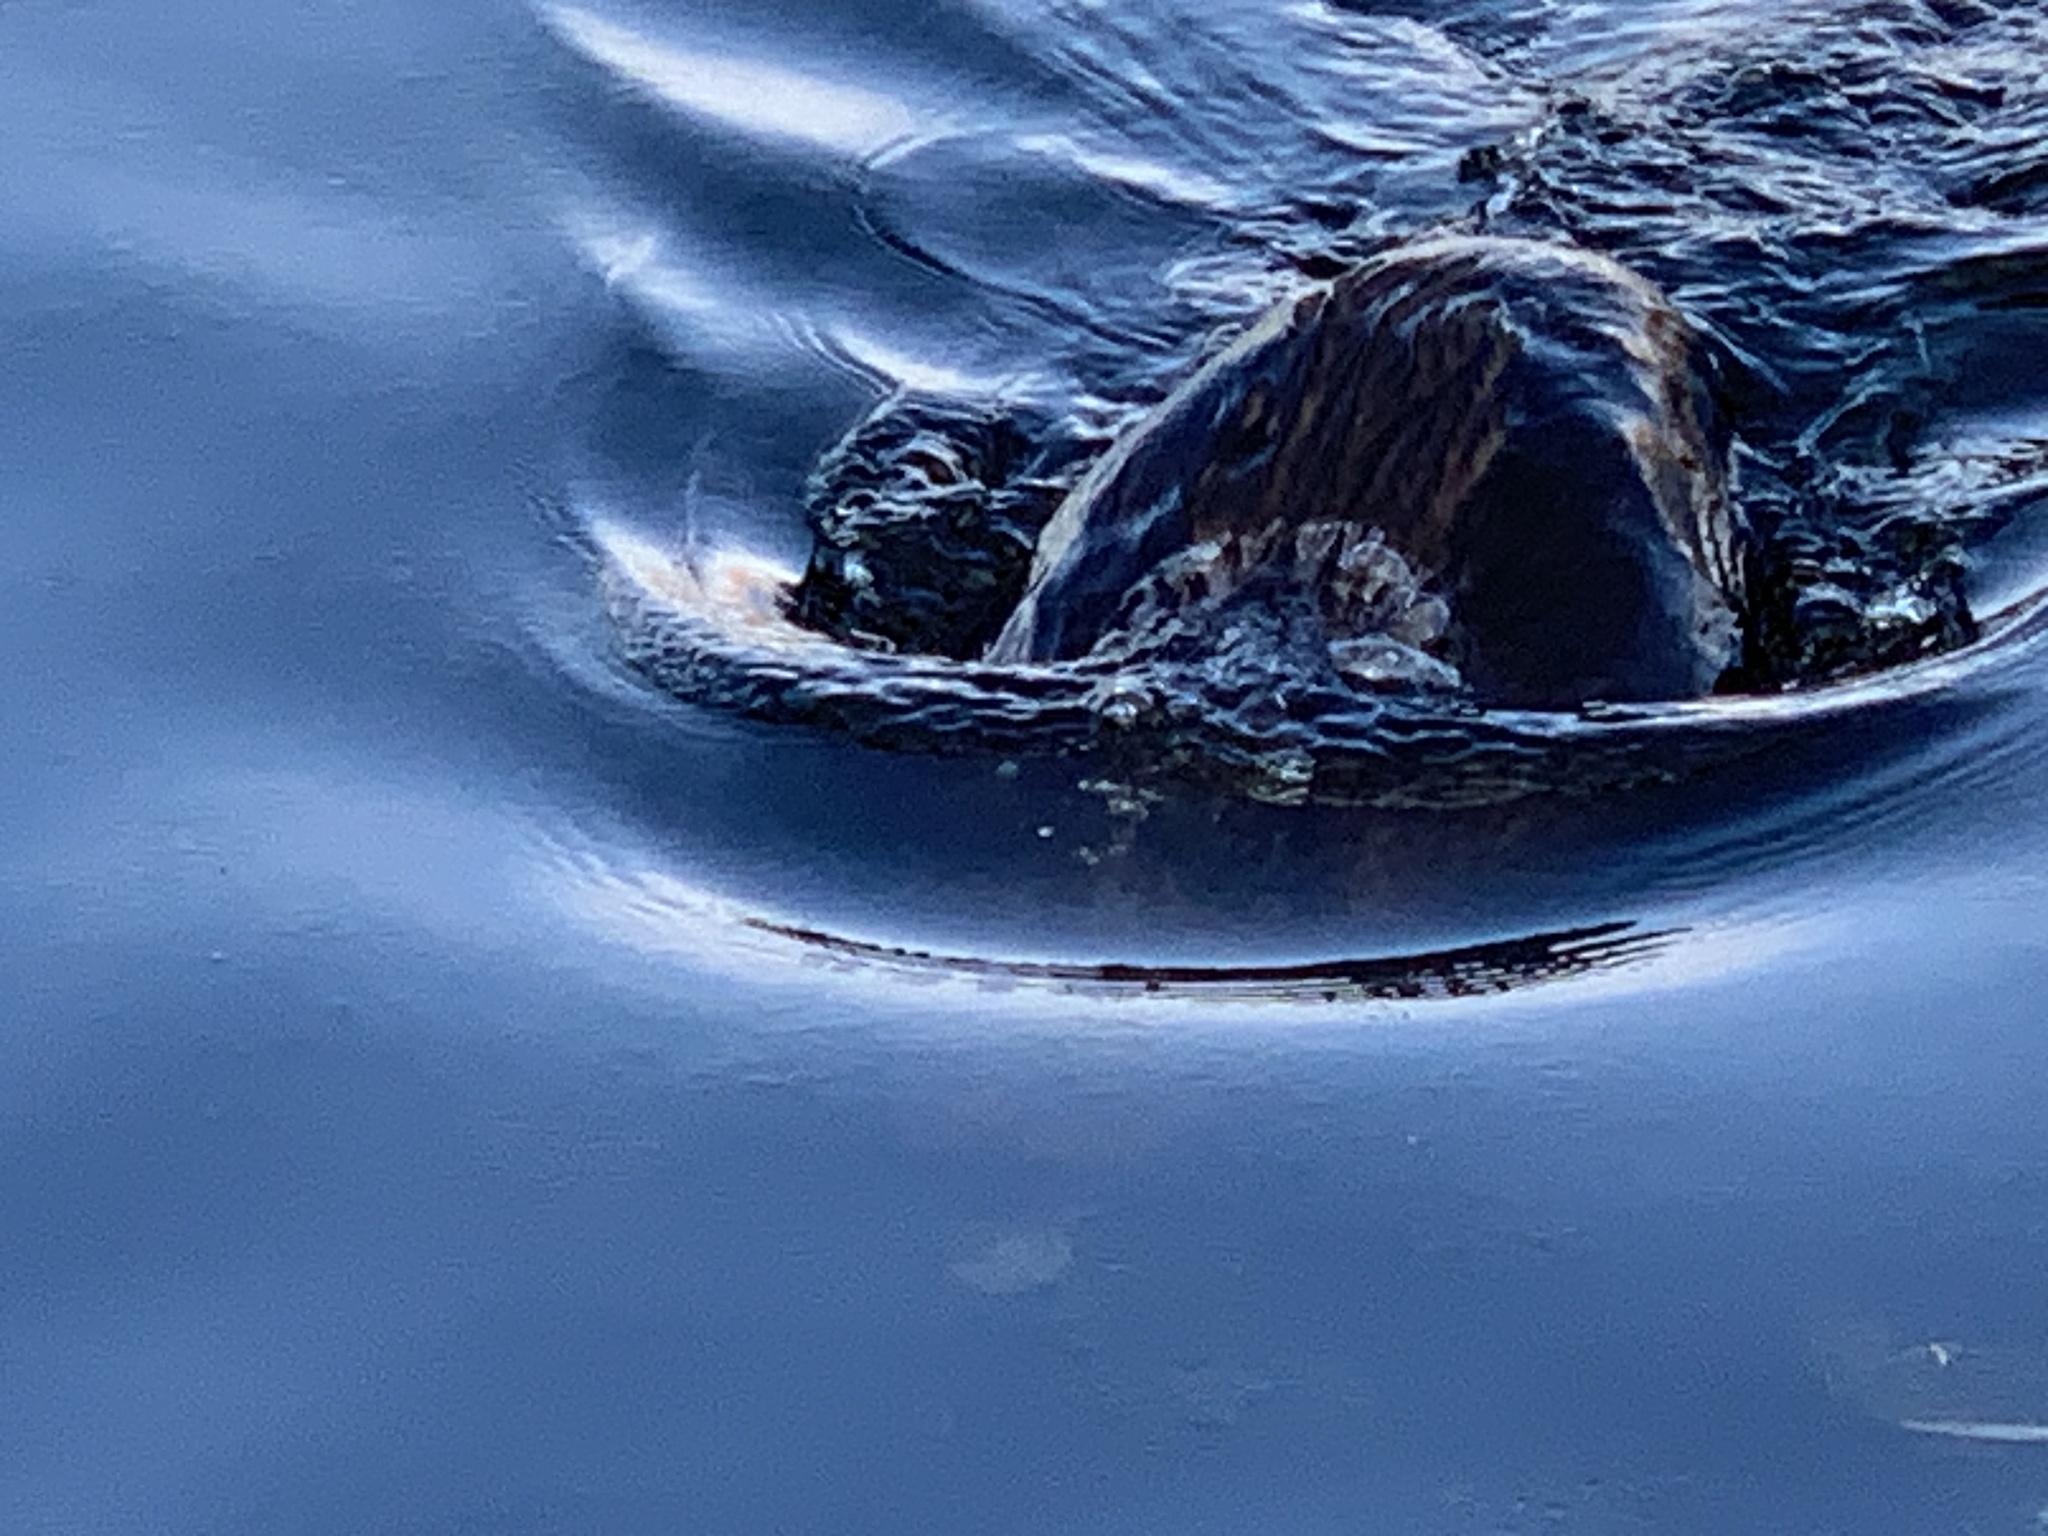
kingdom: Animalia
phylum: Chordata
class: Mammalia
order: Rodentia
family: Castoridae
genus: Castor
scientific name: Castor canadensis
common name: American beaver
